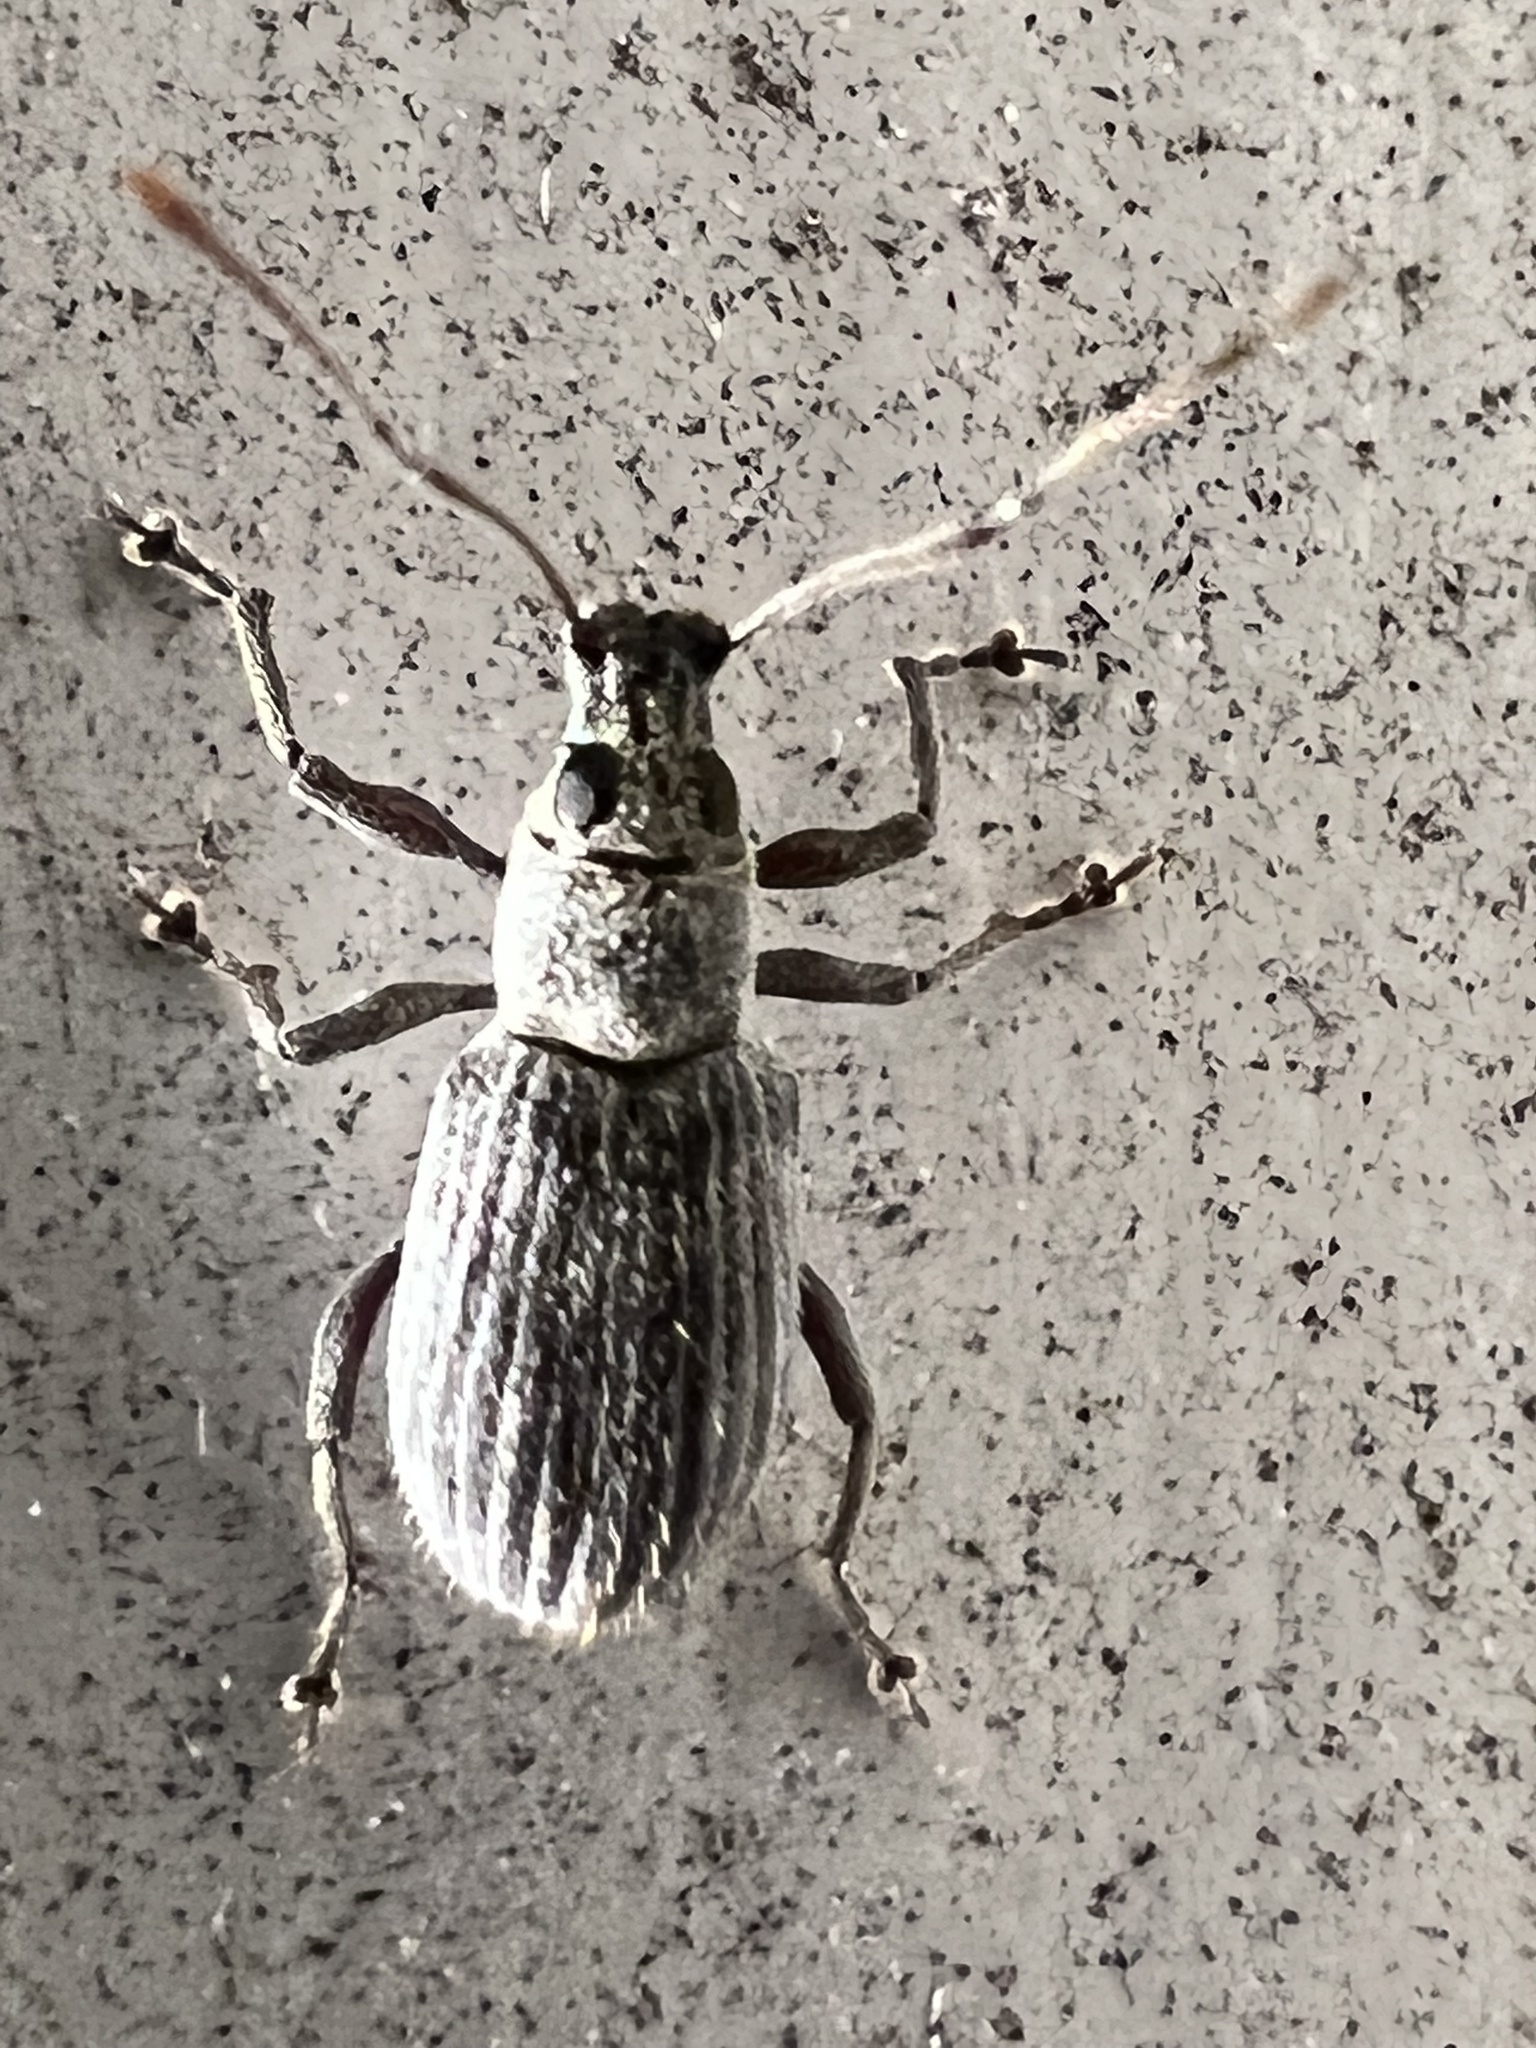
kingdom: Animalia
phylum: Arthropoda
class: Insecta
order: Coleoptera
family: Curculionidae
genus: Cyrtepistomus
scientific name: Cyrtepistomus castaneus
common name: Weevil
